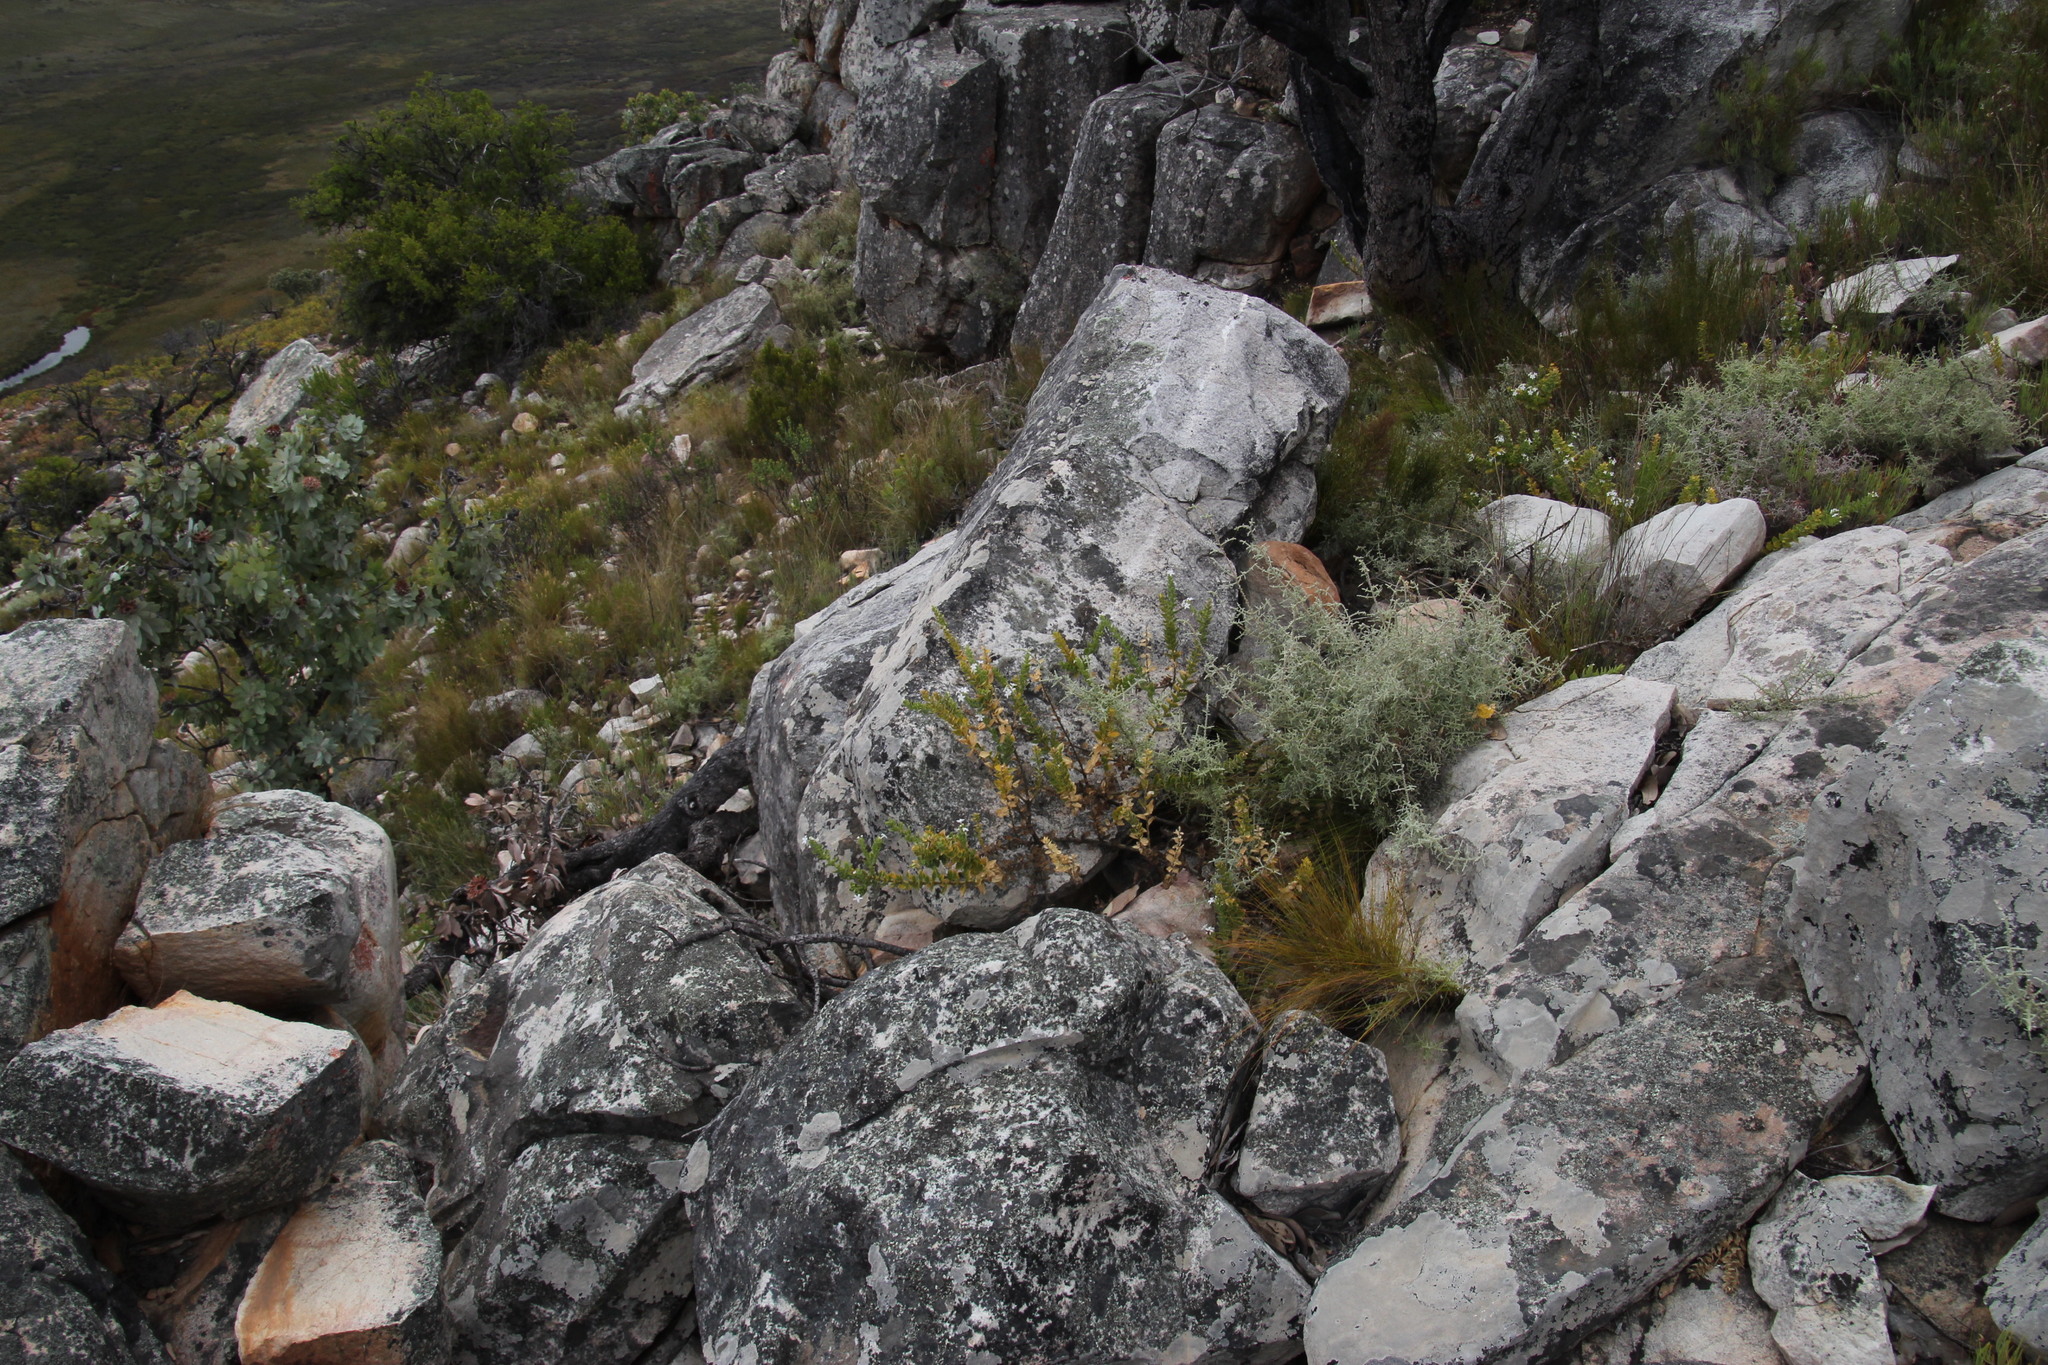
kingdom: Plantae
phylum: Tracheophyta
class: Magnoliopsida
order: Lamiales
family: Scrophulariaceae
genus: Oftia
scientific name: Oftia africana
